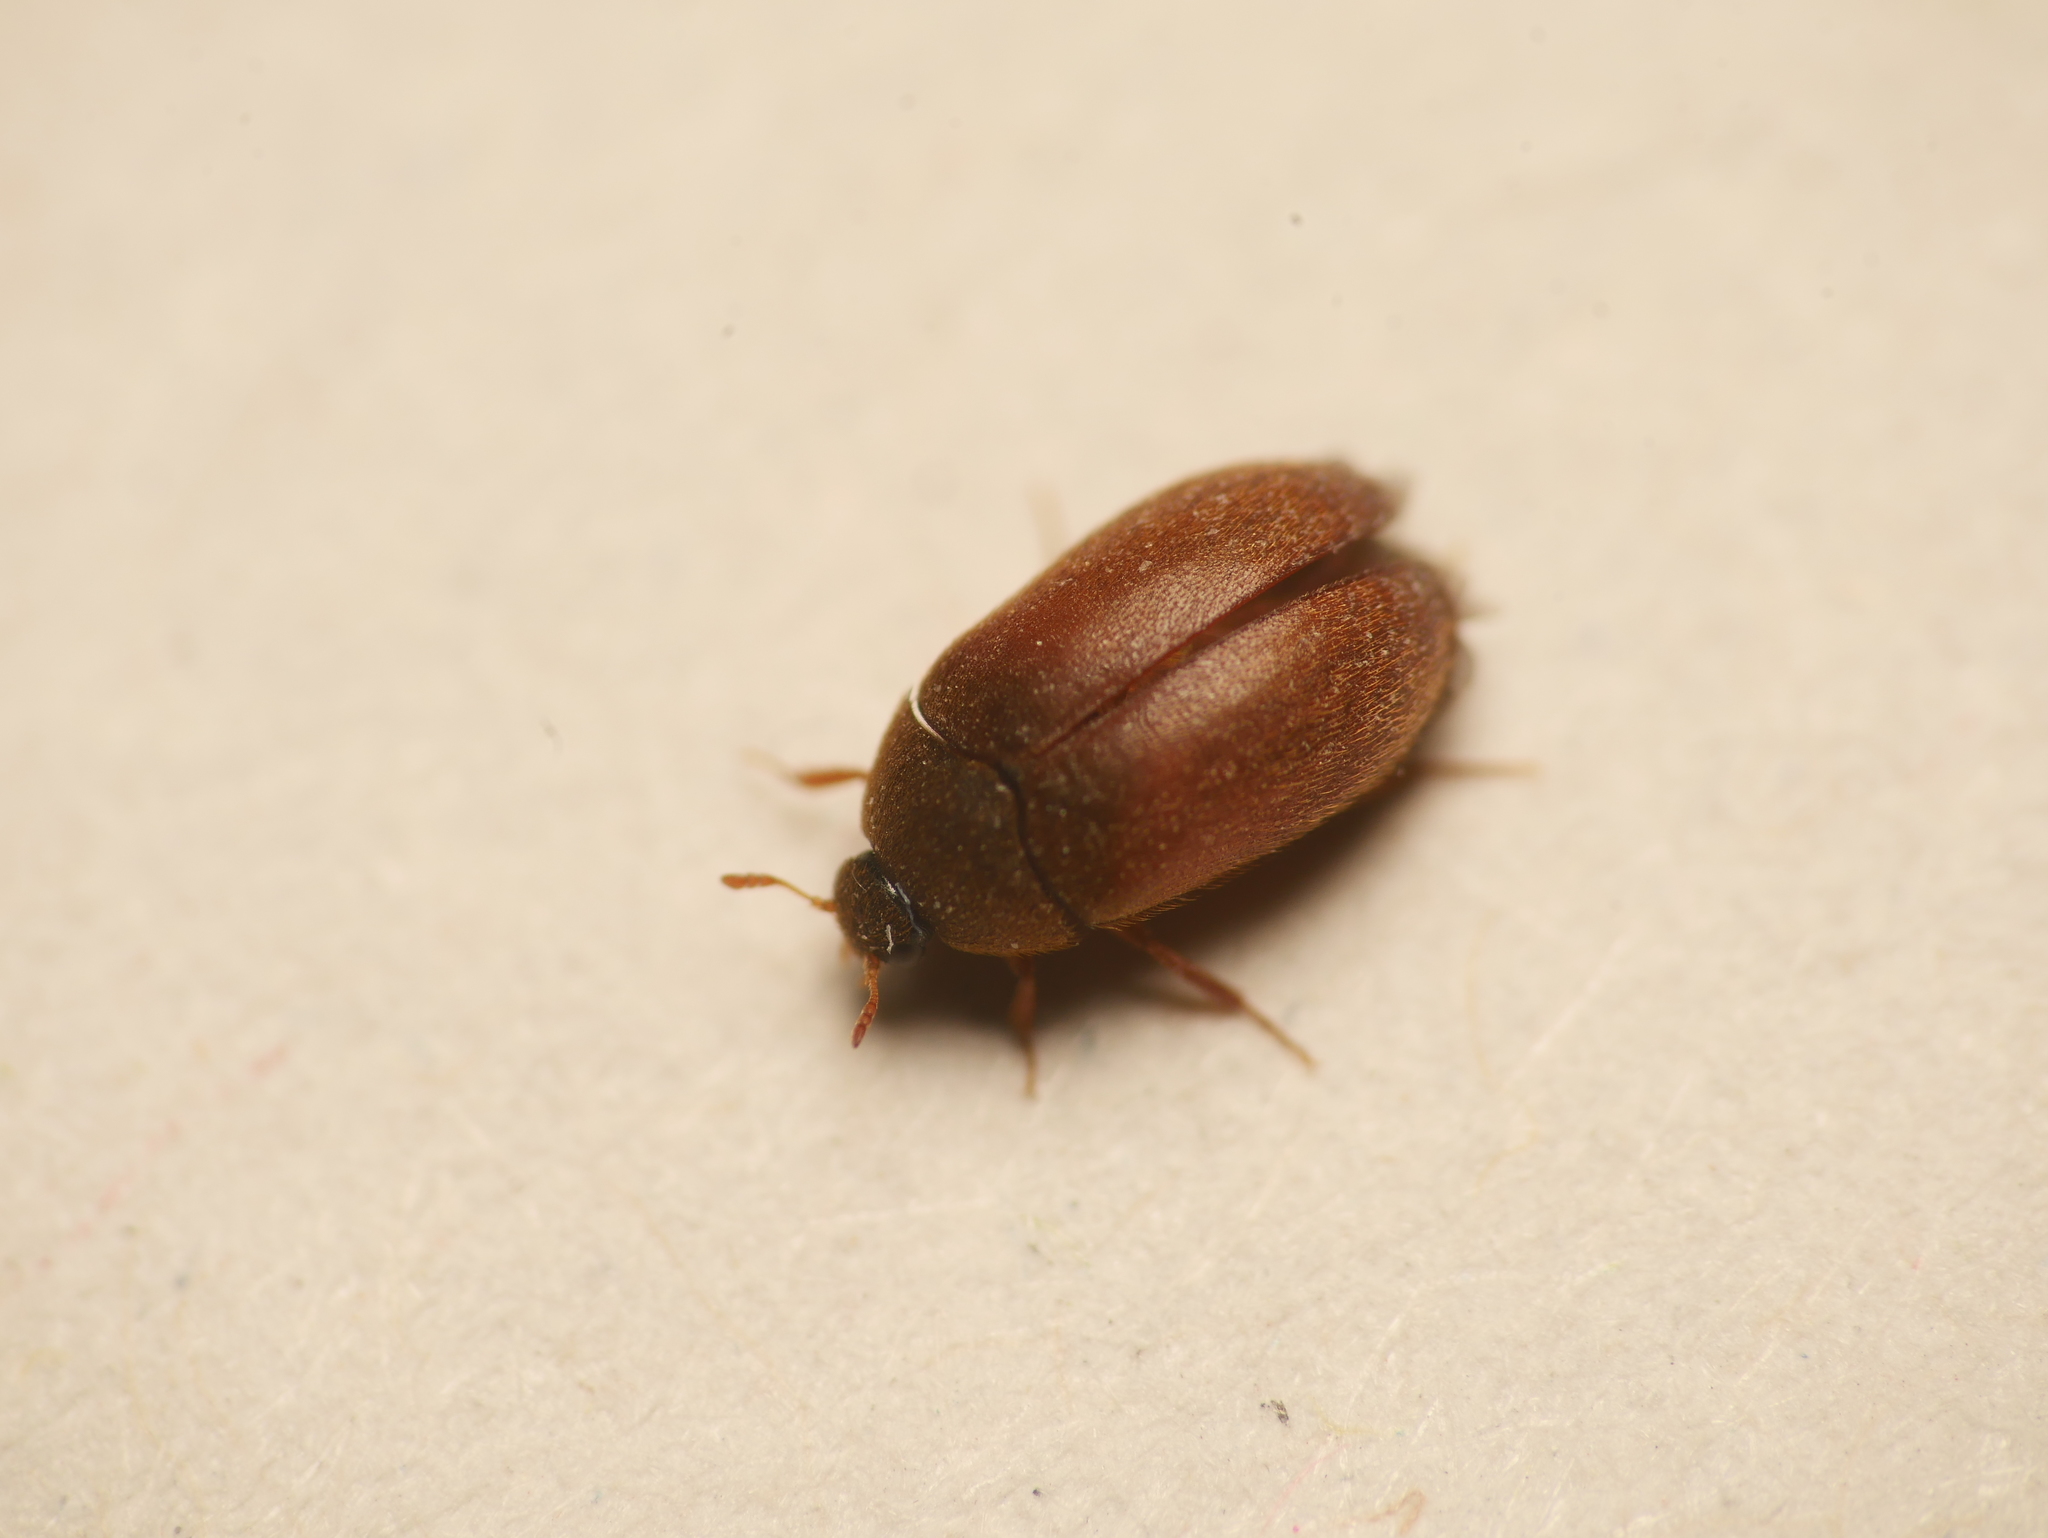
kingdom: Animalia
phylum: Arthropoda
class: Insecta
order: Coleoptera
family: Dermestidae
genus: Attagenus
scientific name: Attagenus smirnovi
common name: Brown carpet beetle
